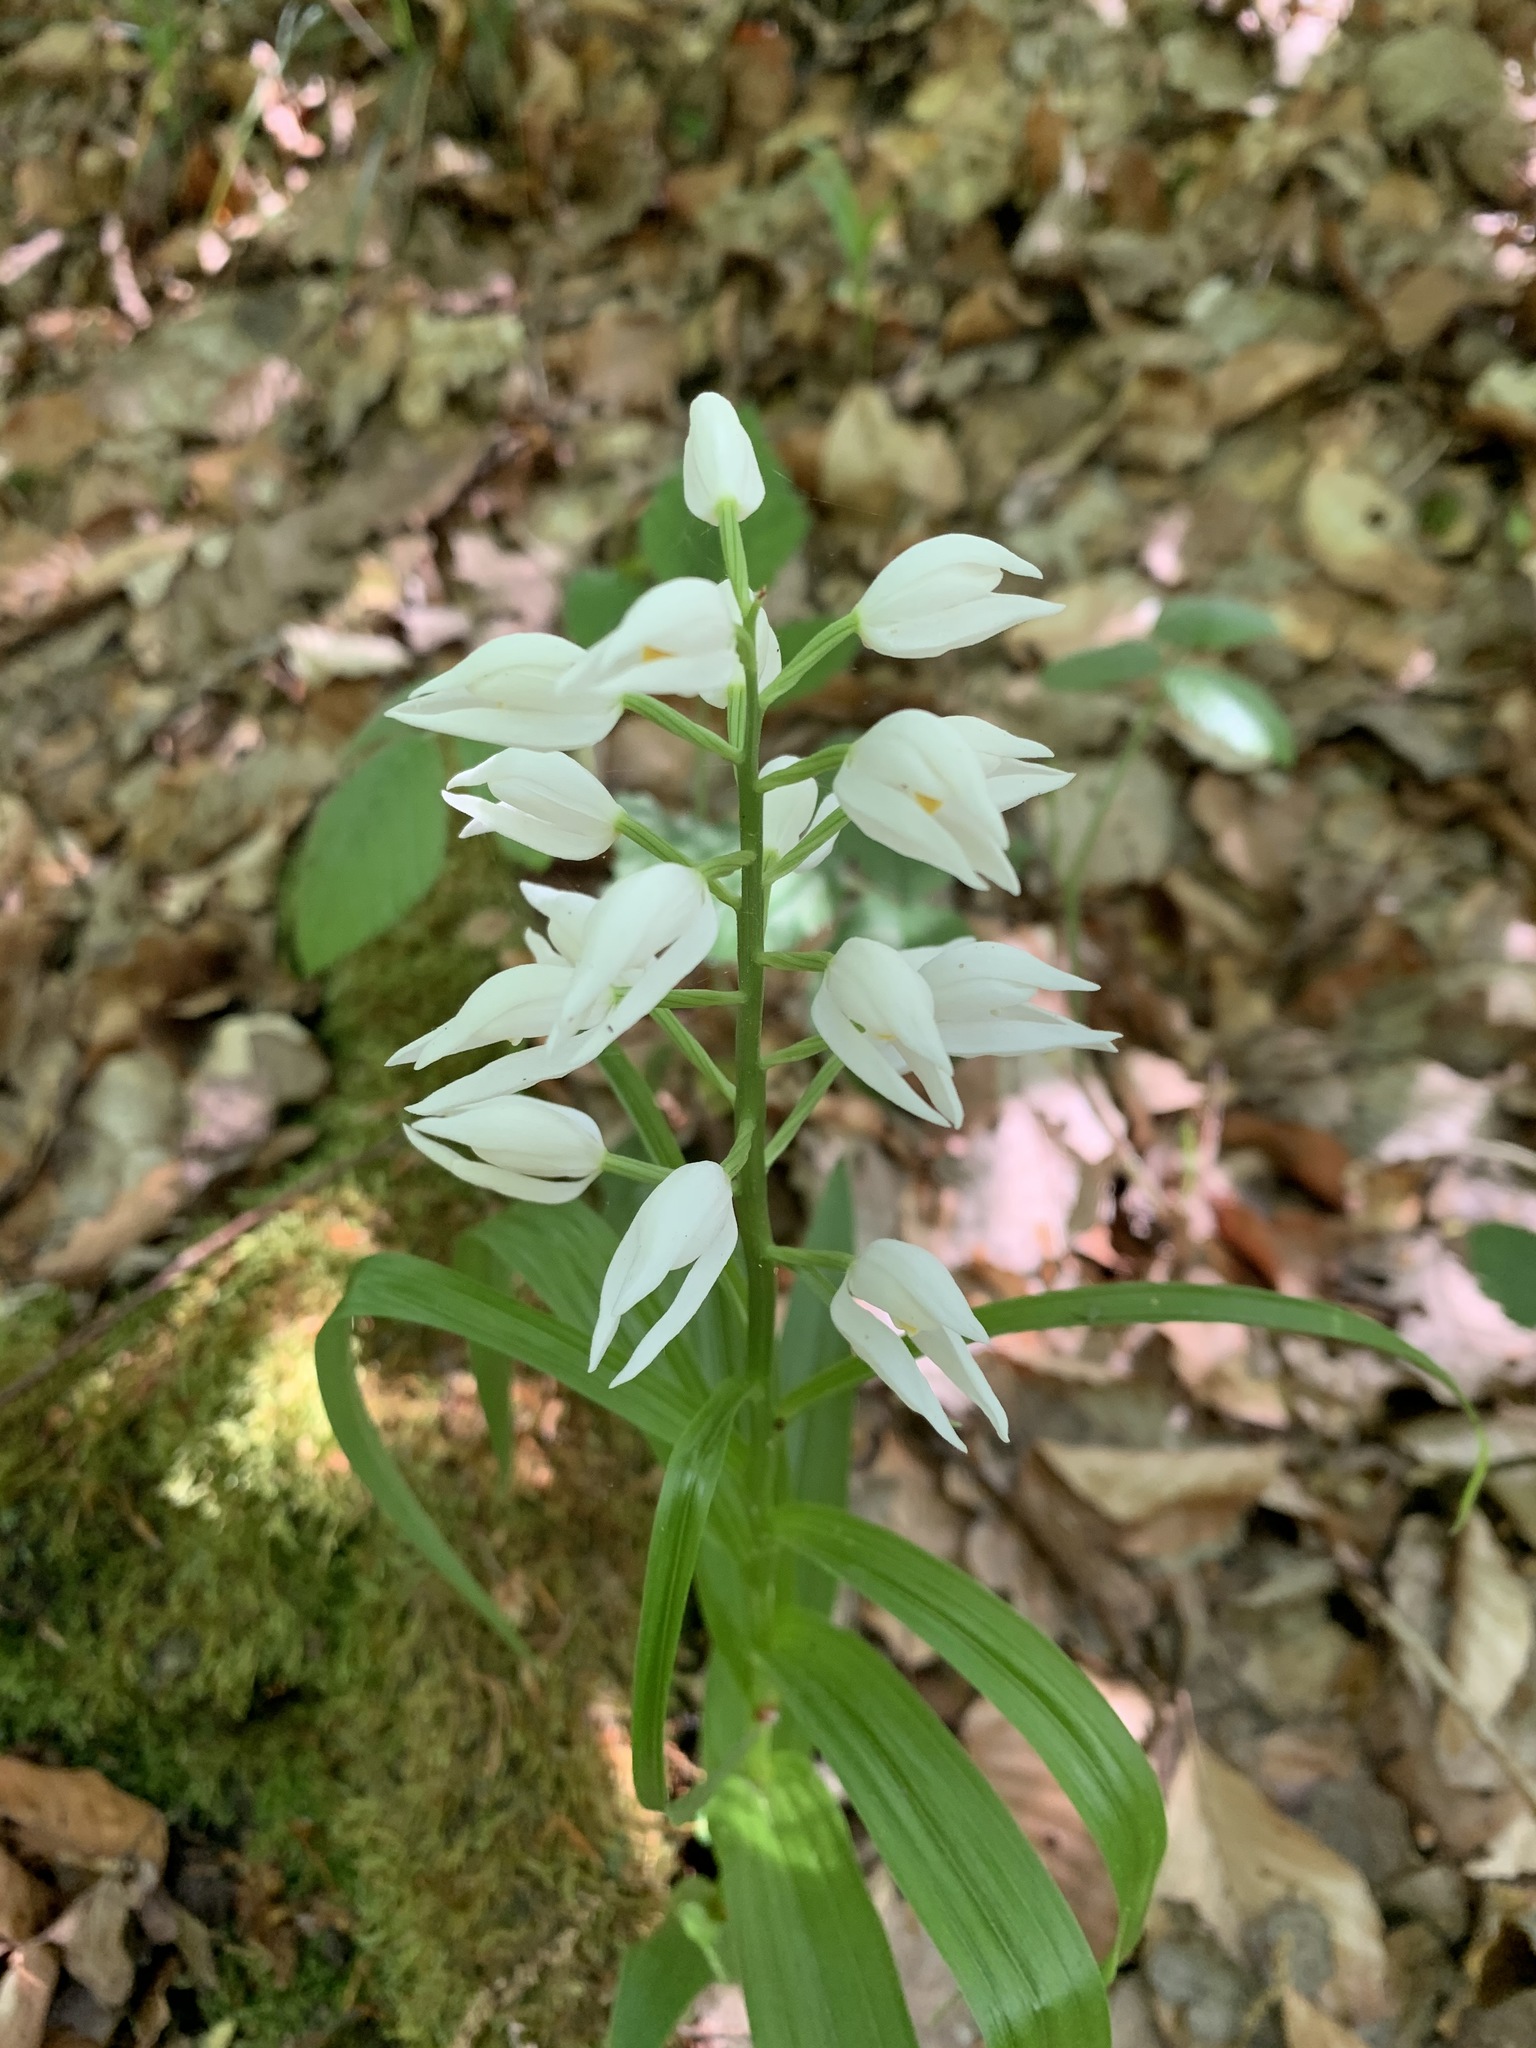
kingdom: Plantae
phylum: Tracheophyta
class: Liliopsida
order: Asparagales
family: Orchidaceae
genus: Cephalanthera
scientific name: Cephalanthera longifolia
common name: Narrow-leaved helleborine
